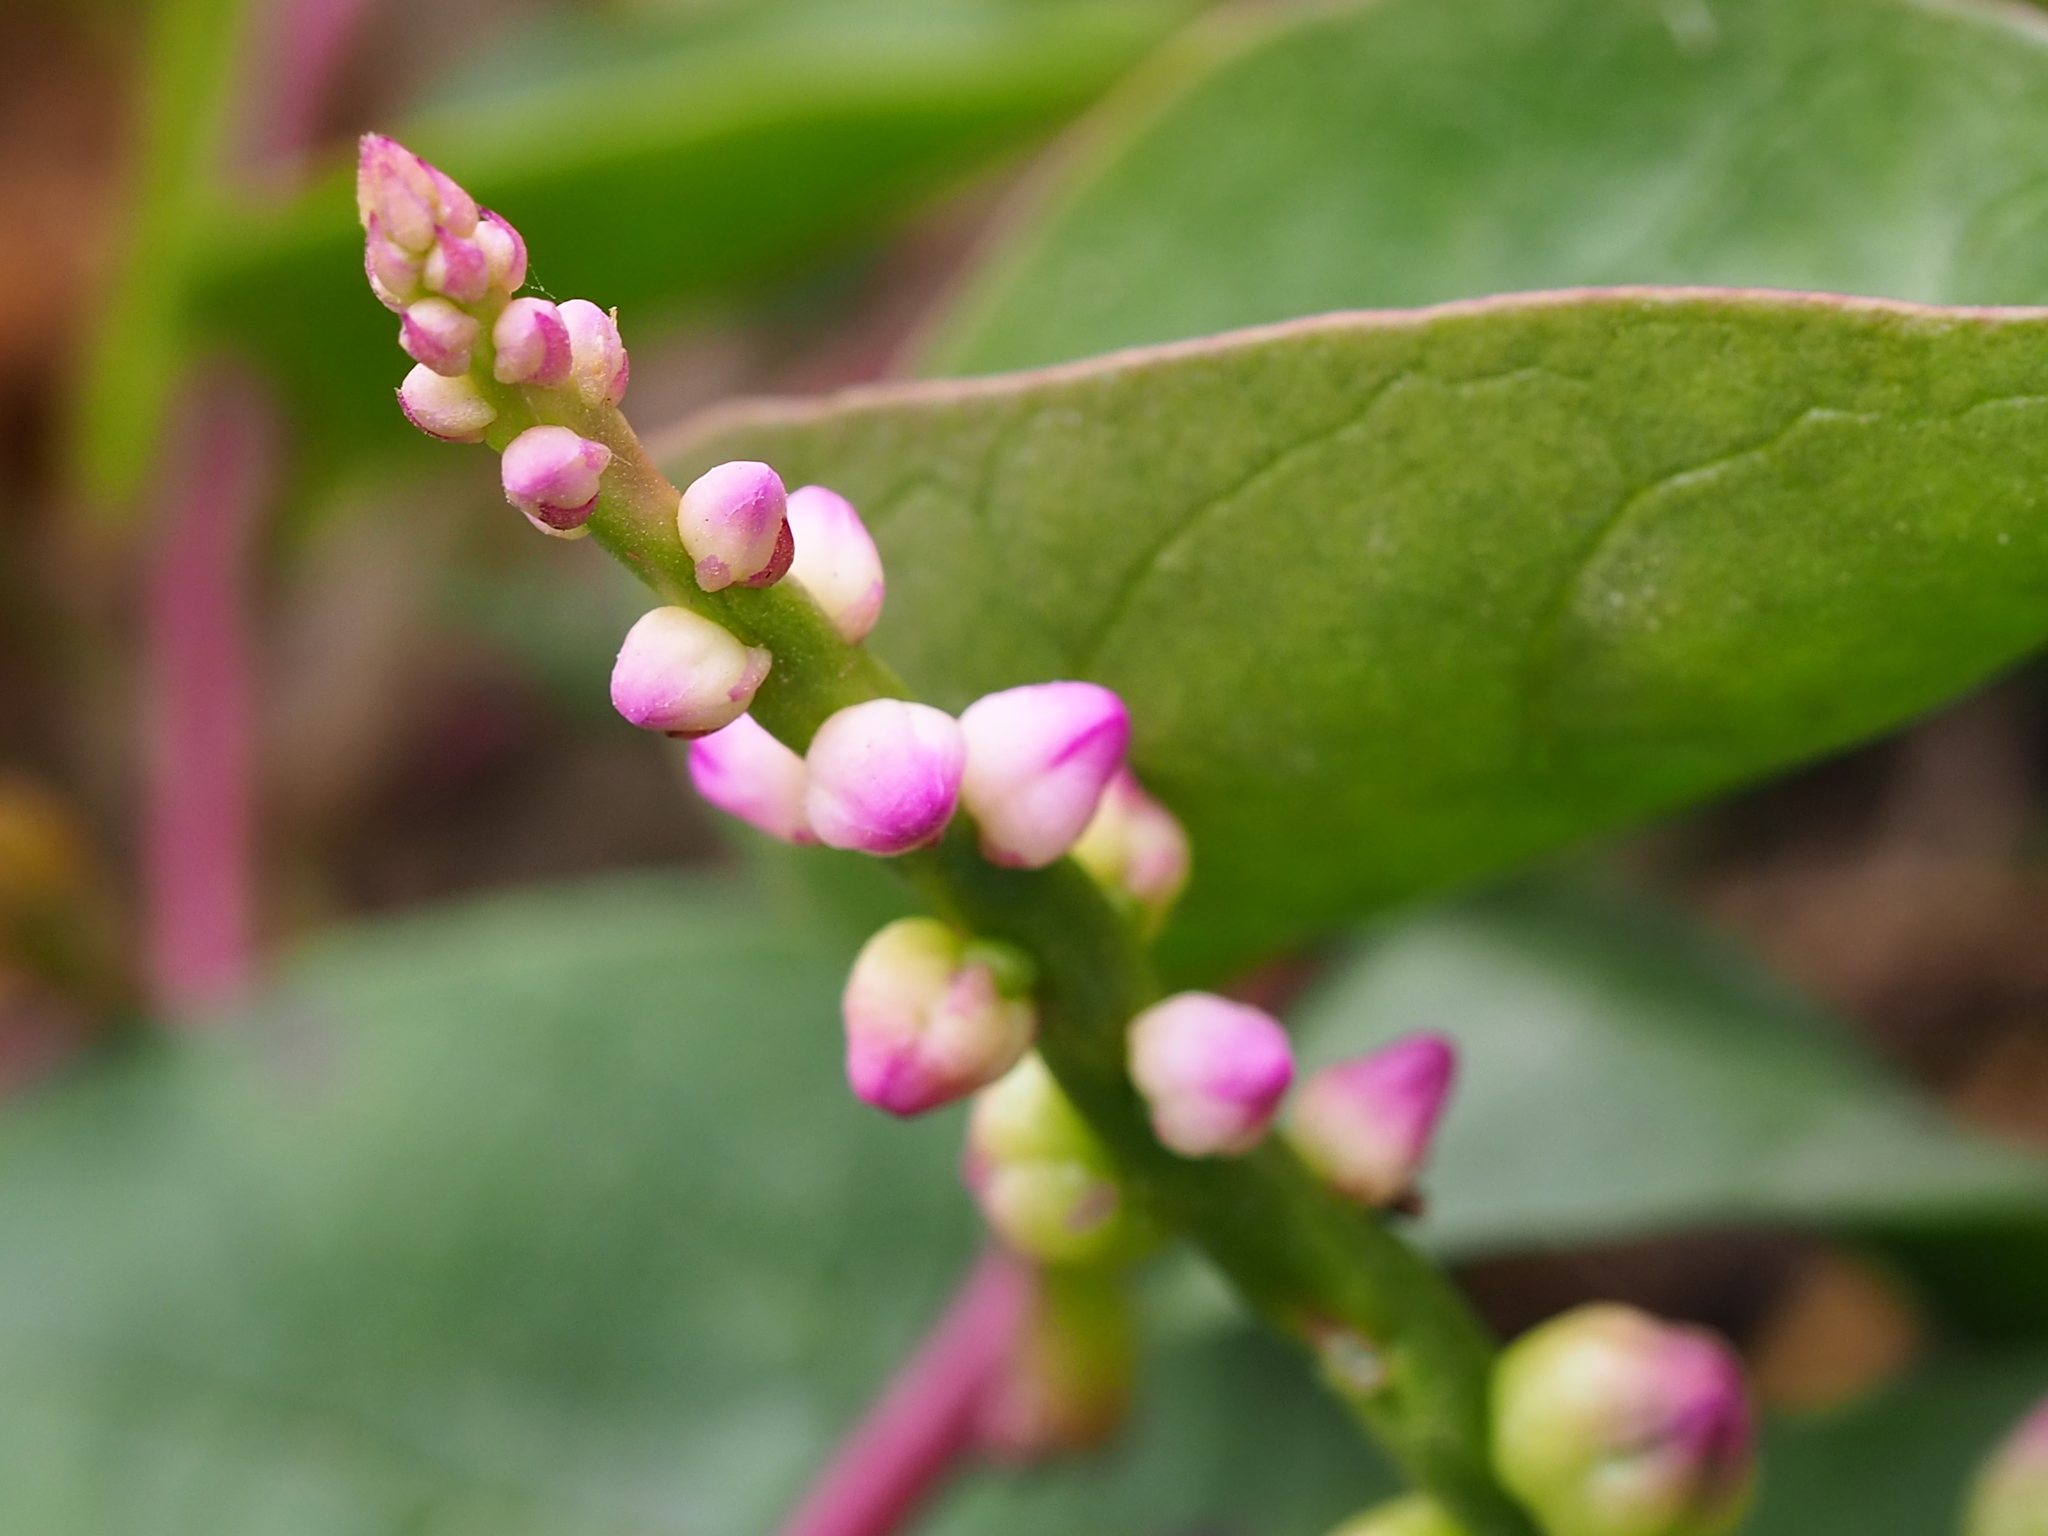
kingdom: Plantae
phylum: Tracheophyta
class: Magnoliopsida
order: Caryophyllales
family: Basellaceae
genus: Basella
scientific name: Basella alba
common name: Indian spinach
